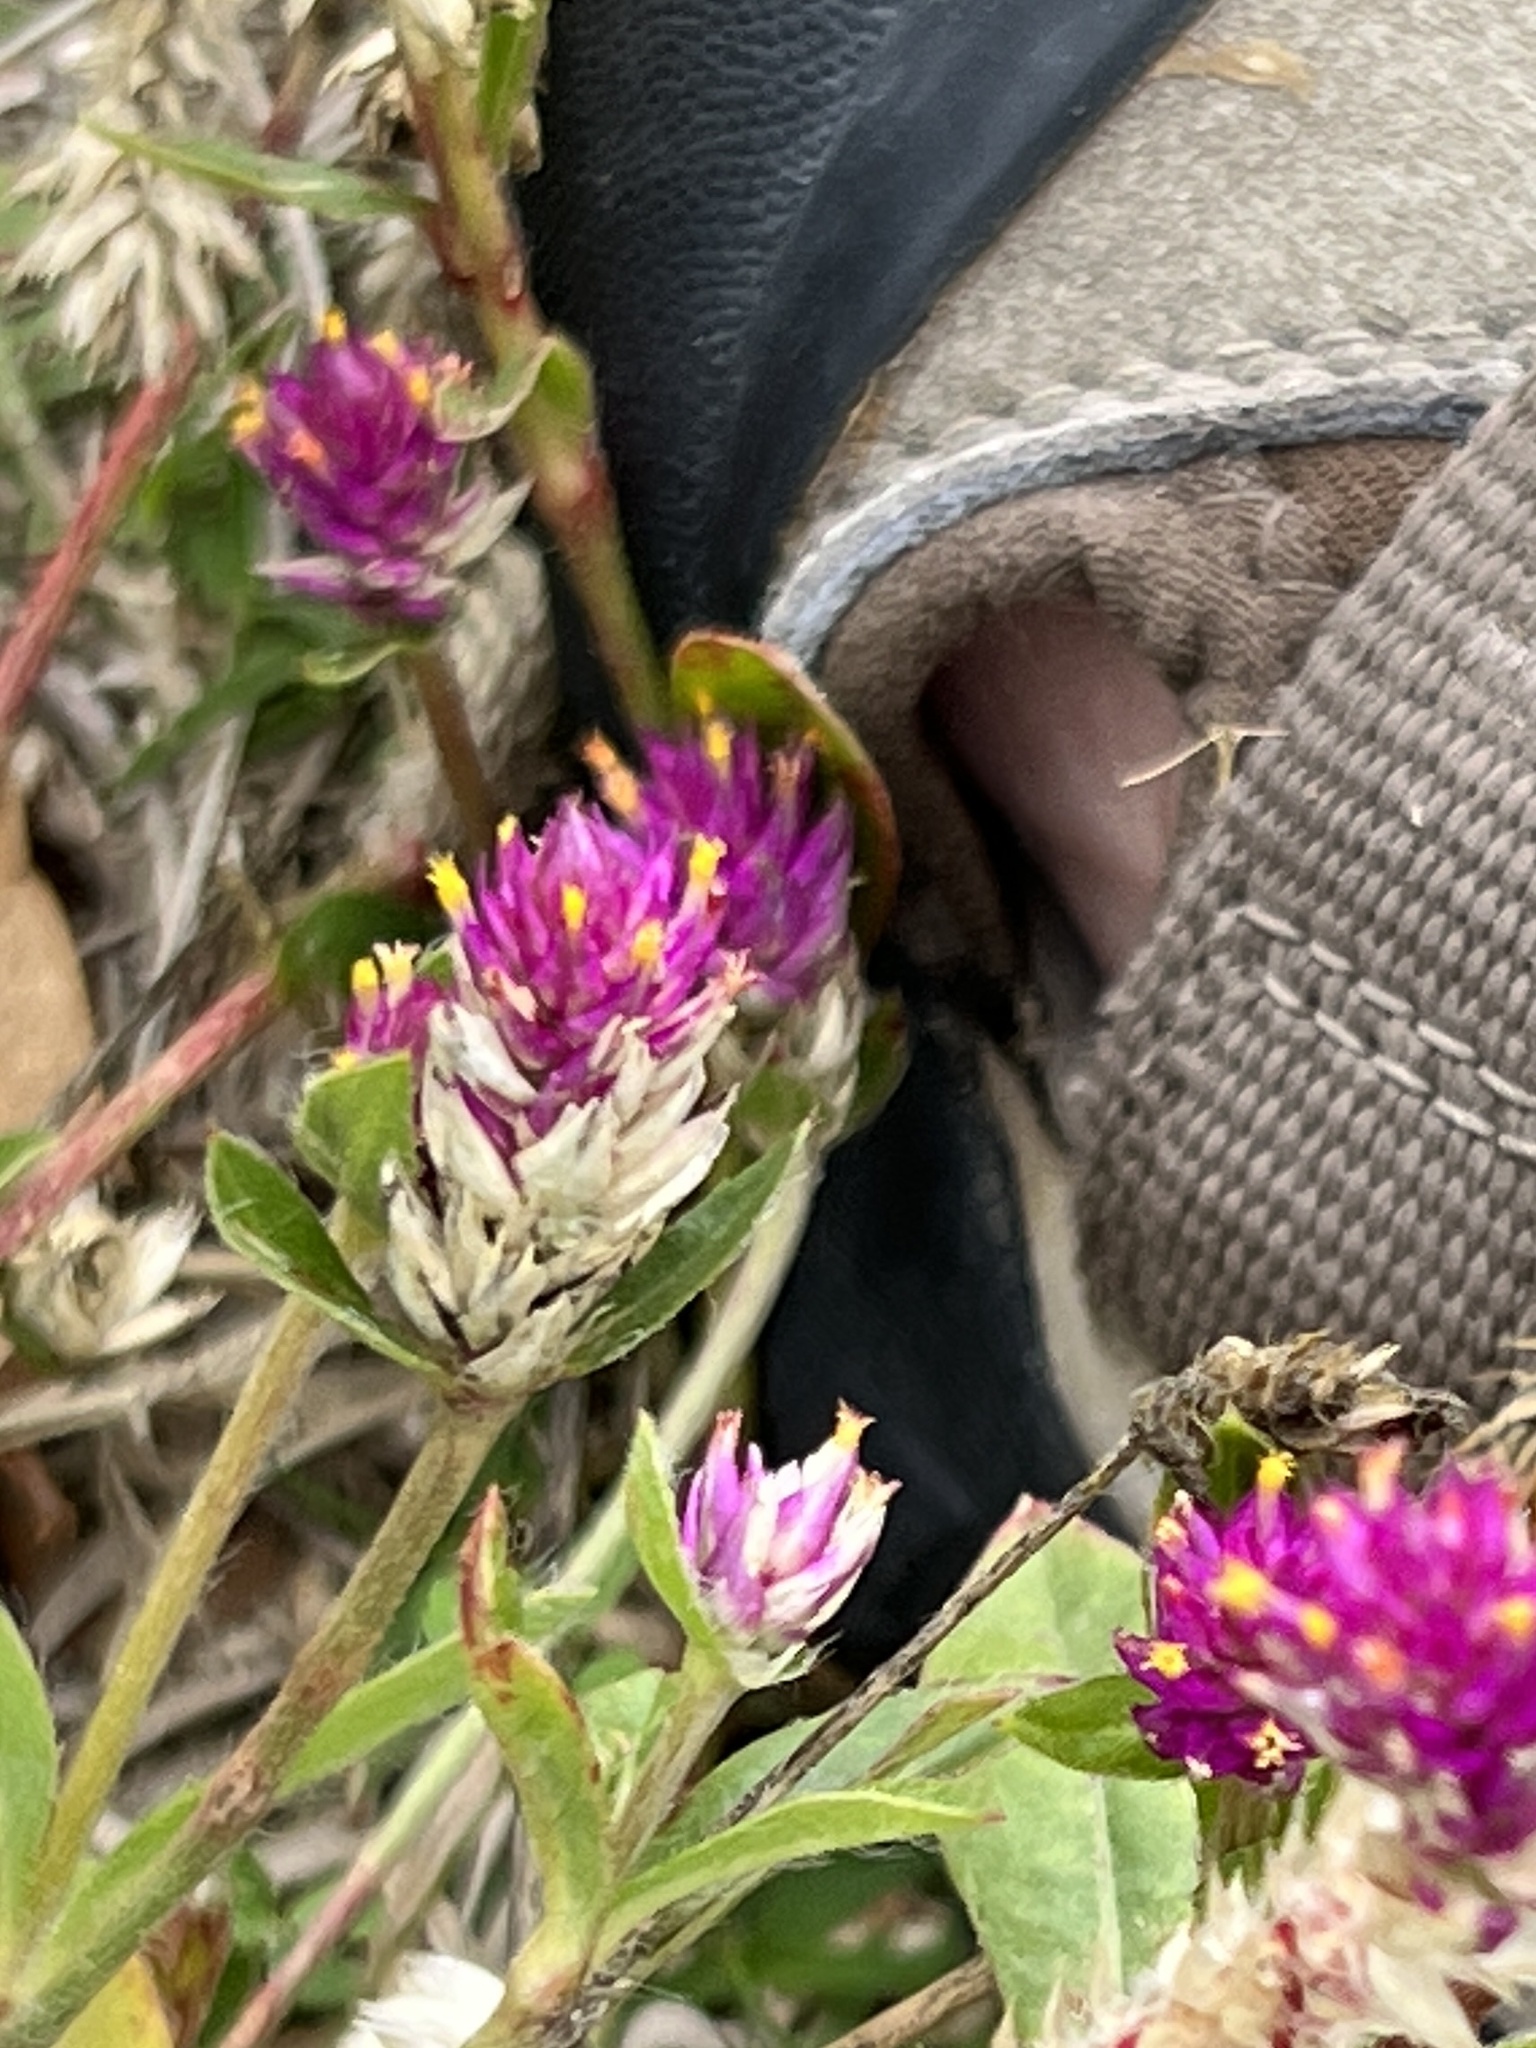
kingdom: Plantae
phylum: Tracheophyta
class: Magnoliopsida
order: Caryophyllales
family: Amaranthaceae
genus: Gomphrena
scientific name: Gomphrena globosa
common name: Common globe amaranth
